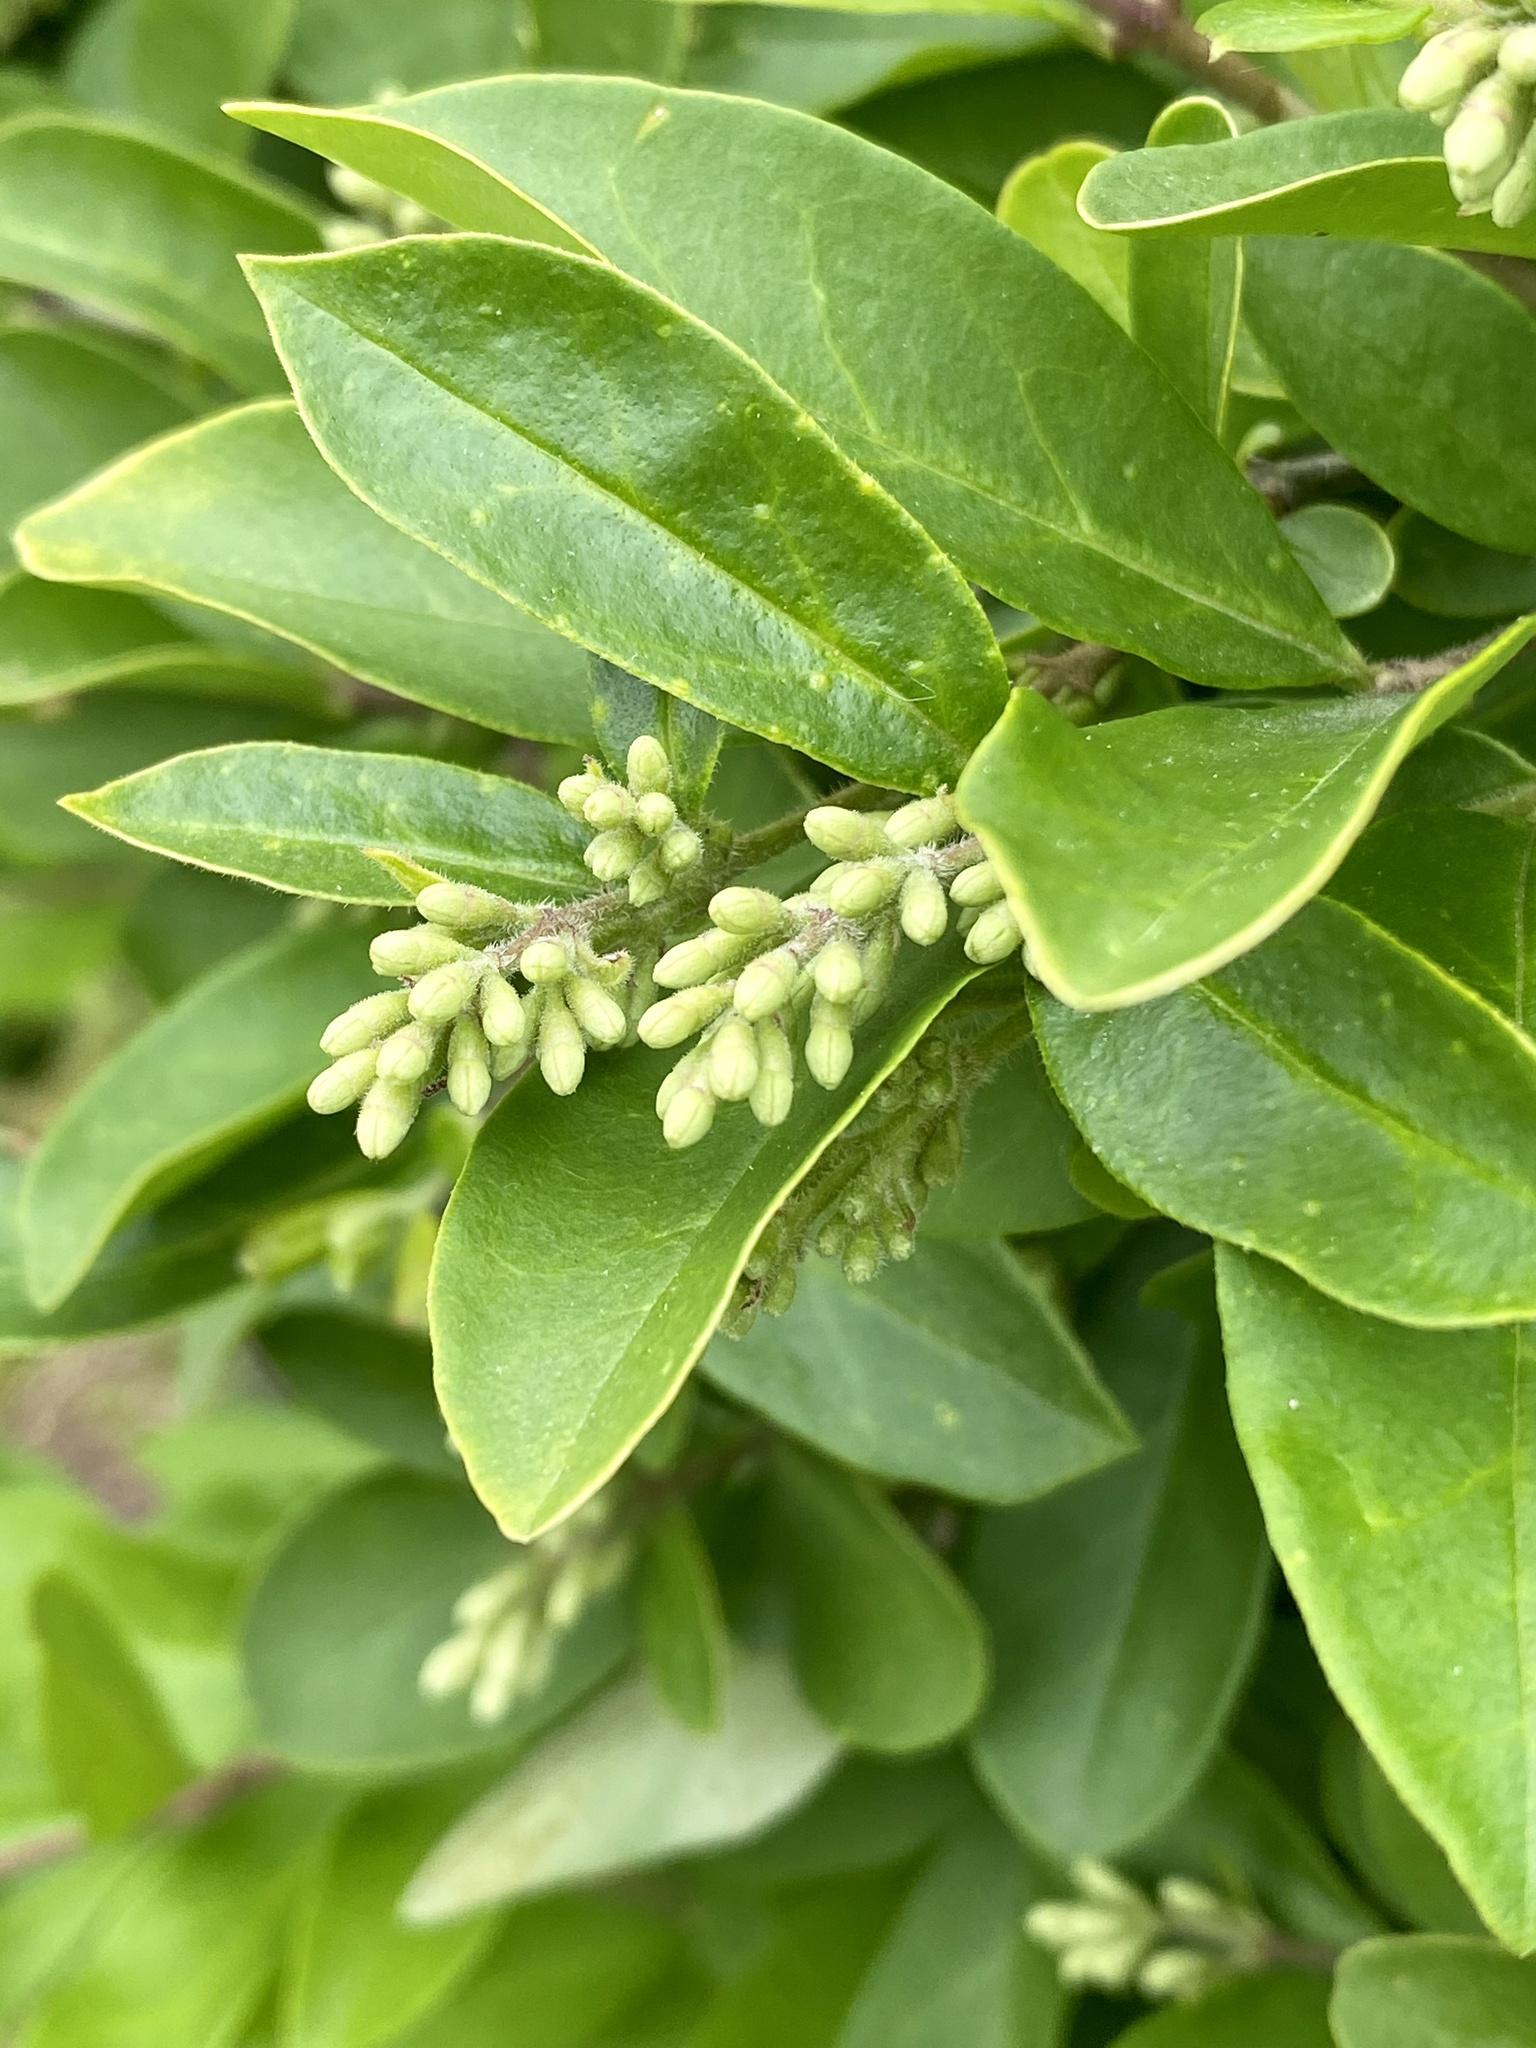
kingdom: Plantae
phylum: Tracheophyta
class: Magnoliopsida
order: Lamiales
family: Oleaceae
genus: Ligustrum
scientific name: Ligustrum obtusifolium
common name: Border privet
